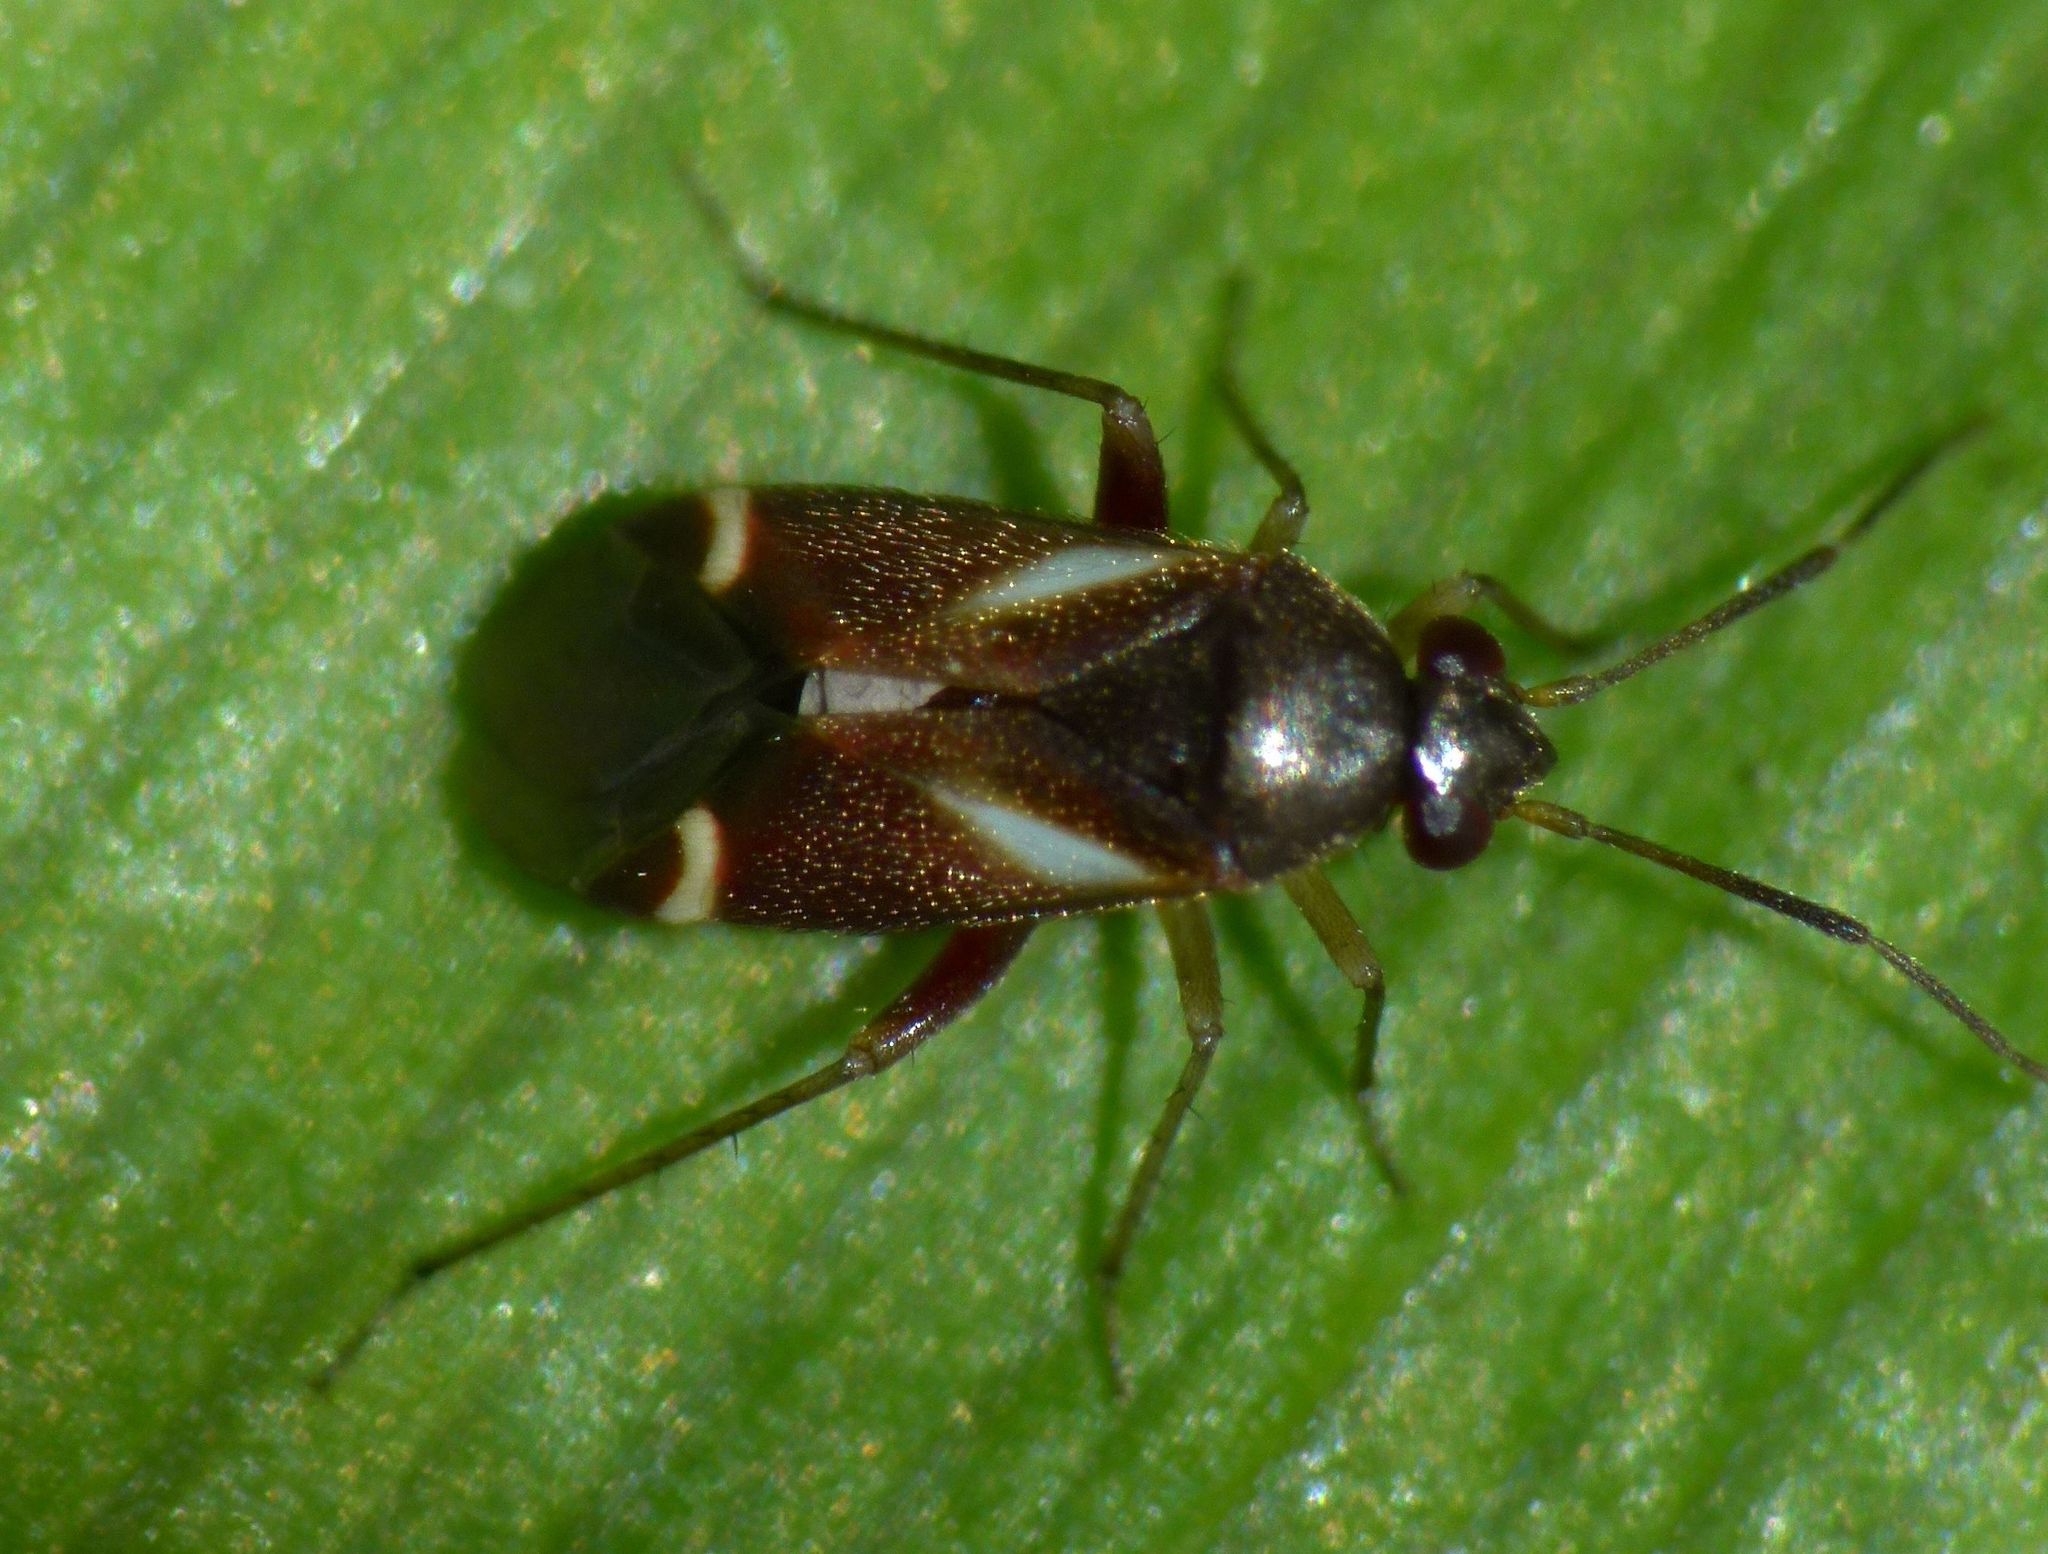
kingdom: Animalia
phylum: Arthropoda
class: Insecta
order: Hemiptera
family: Miridae
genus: Ausejanus
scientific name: Ausejanus albisignatus
